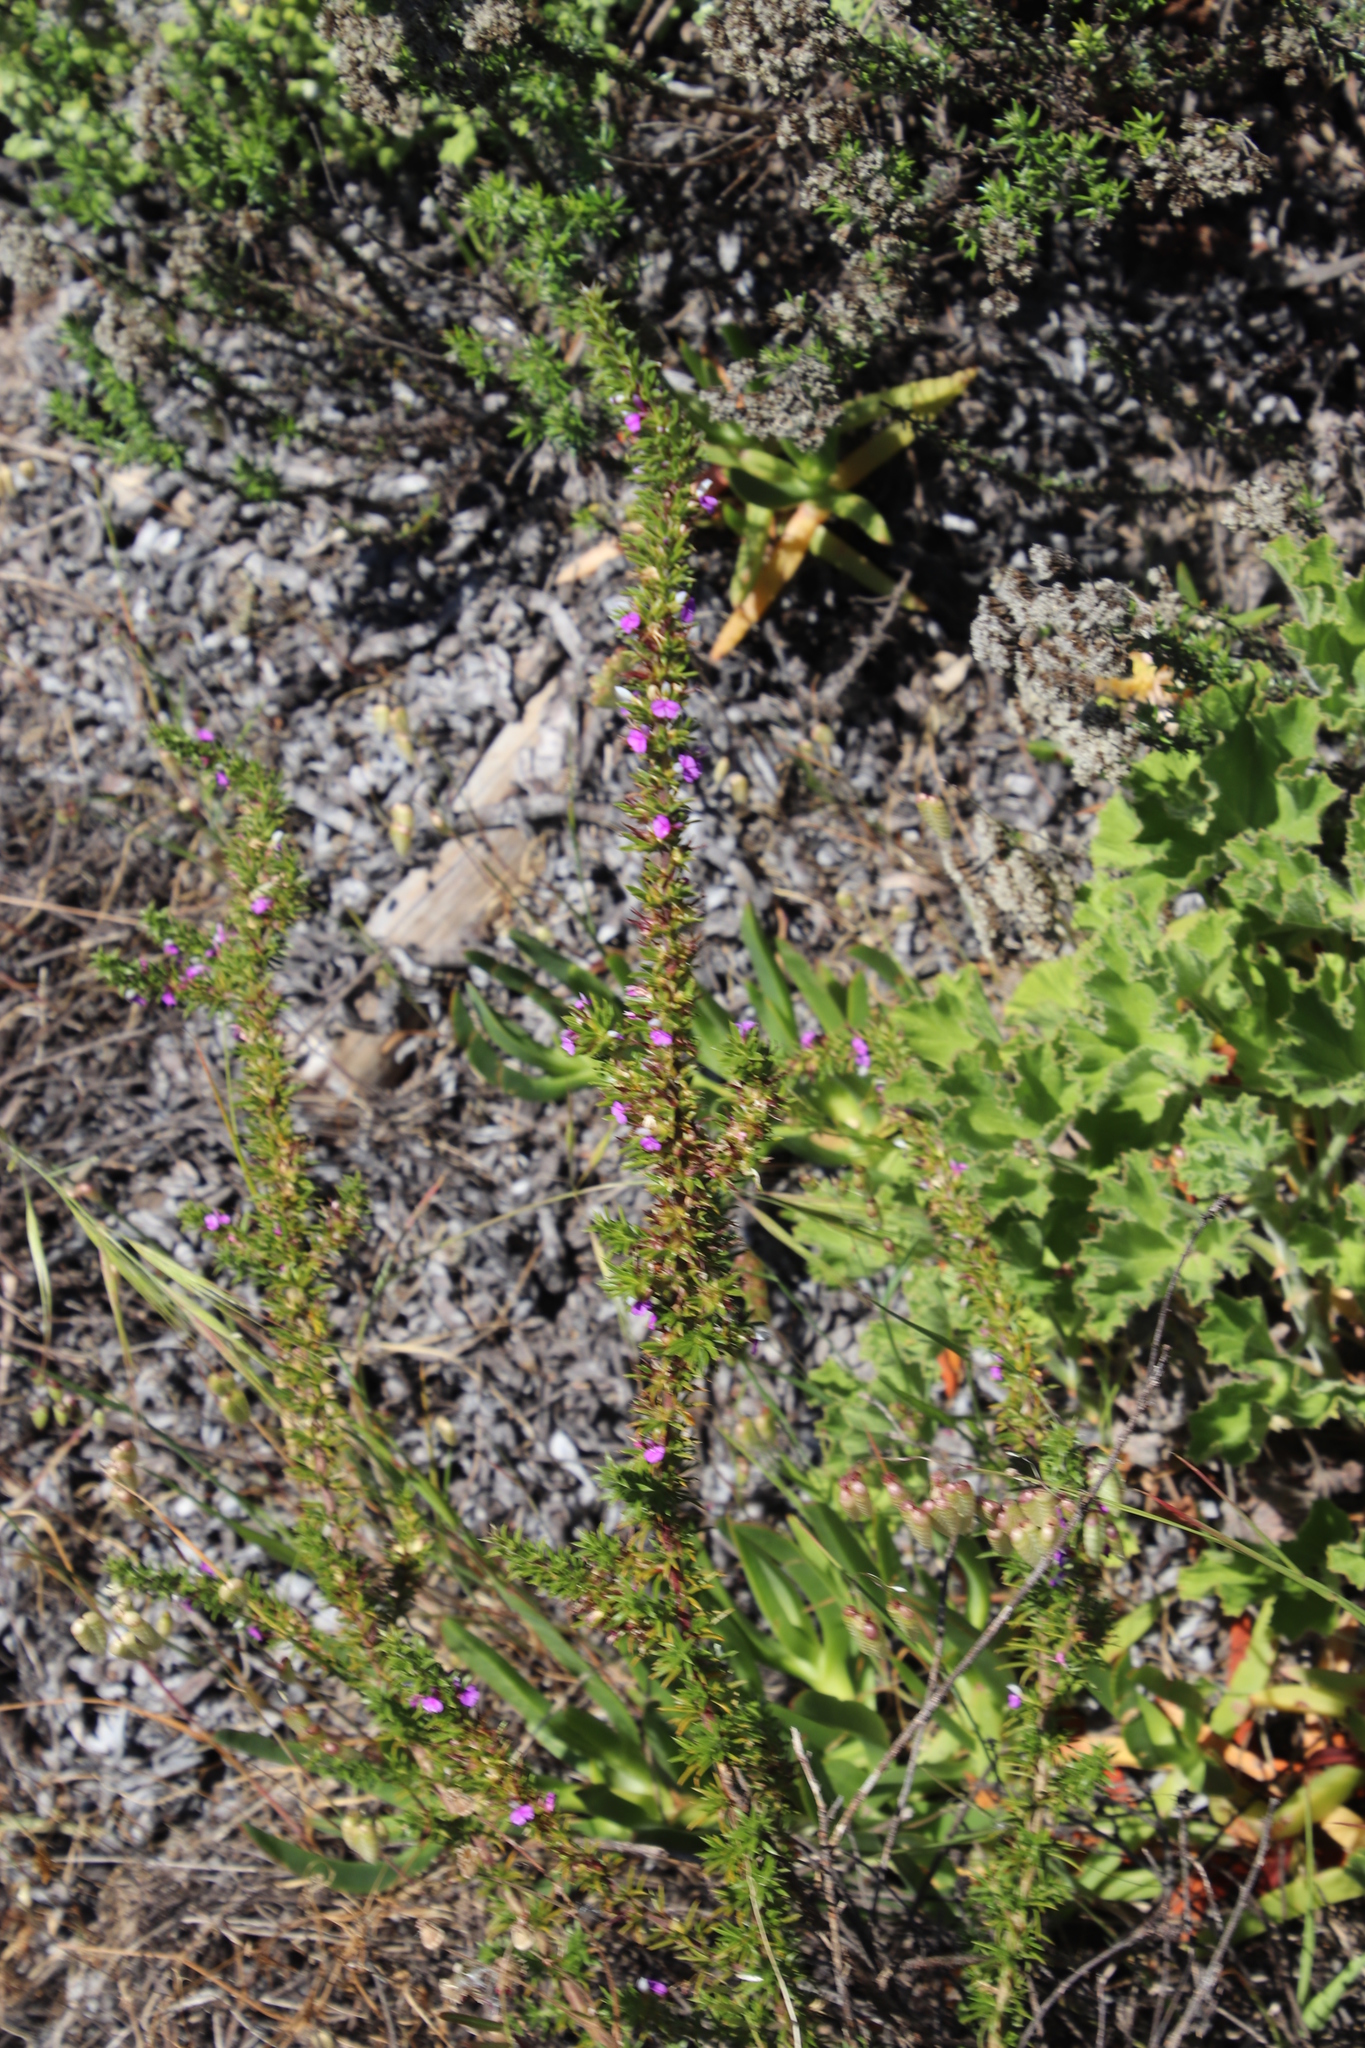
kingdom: Plantae
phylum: Tracheophyta
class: Magnoliopsida
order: Fabales
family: Polygalaceae
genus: Muraltia
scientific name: Muraltia heisteria
